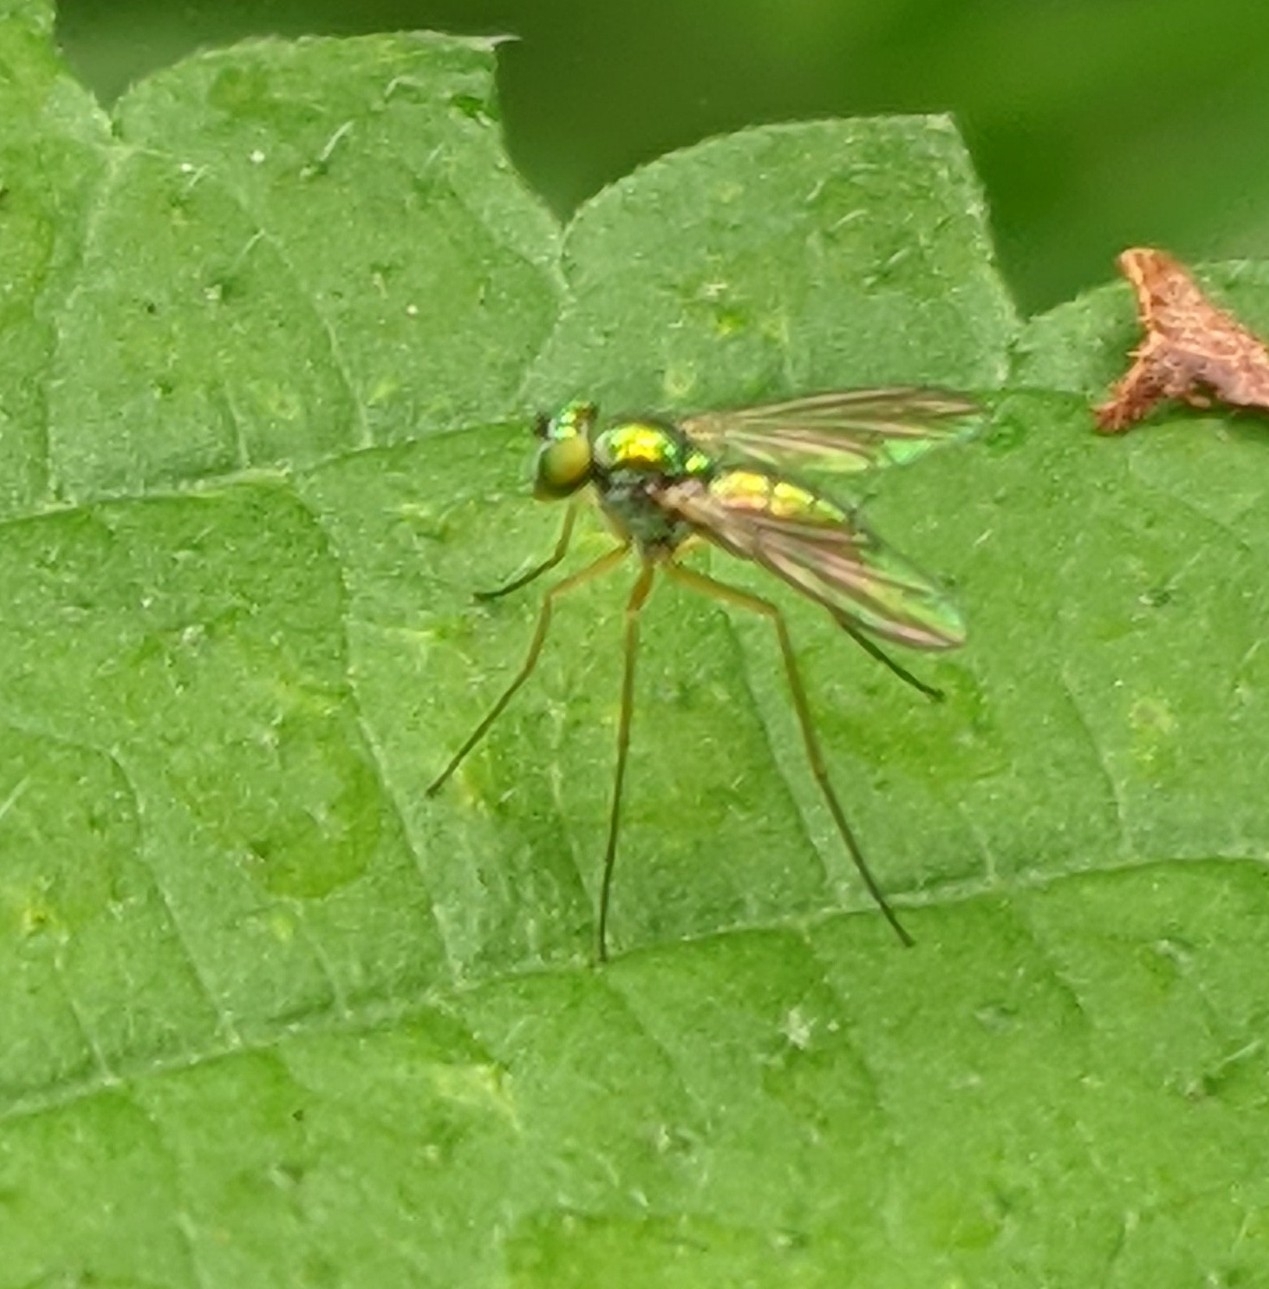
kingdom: Animalia
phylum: Arthropoda
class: Insecta
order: Diptera
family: Dolichopodidae
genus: Amblypsilopus
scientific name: Amblypsilopus scintillans
